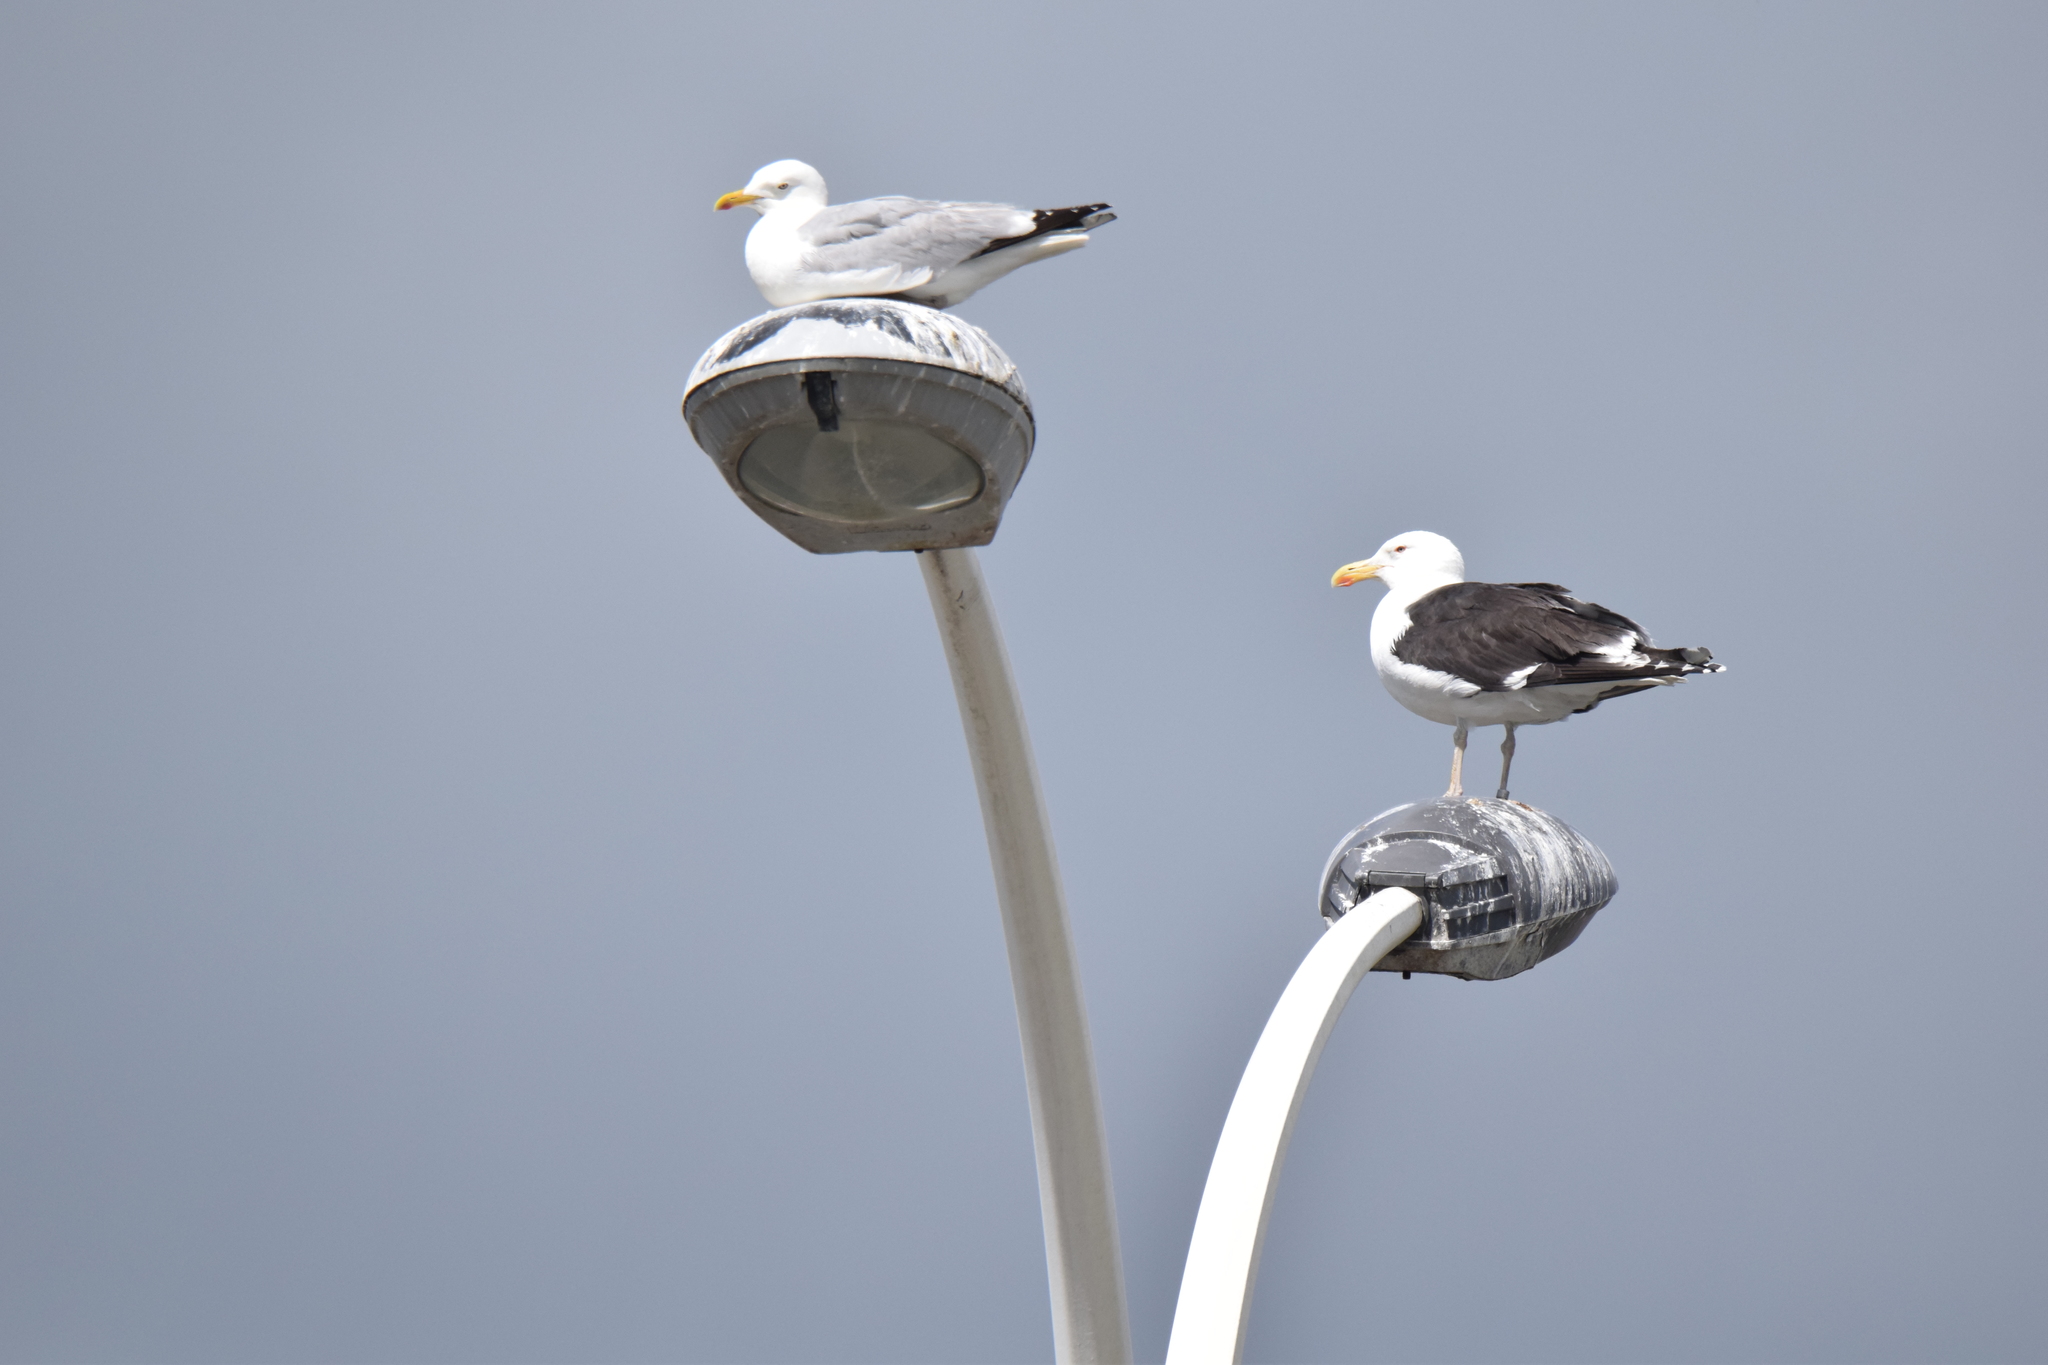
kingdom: Animalia
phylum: Chordata
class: Aves
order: Charadriiformes
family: Laridae
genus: Larus
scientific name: Larus marinus
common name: Great black-backed gull
